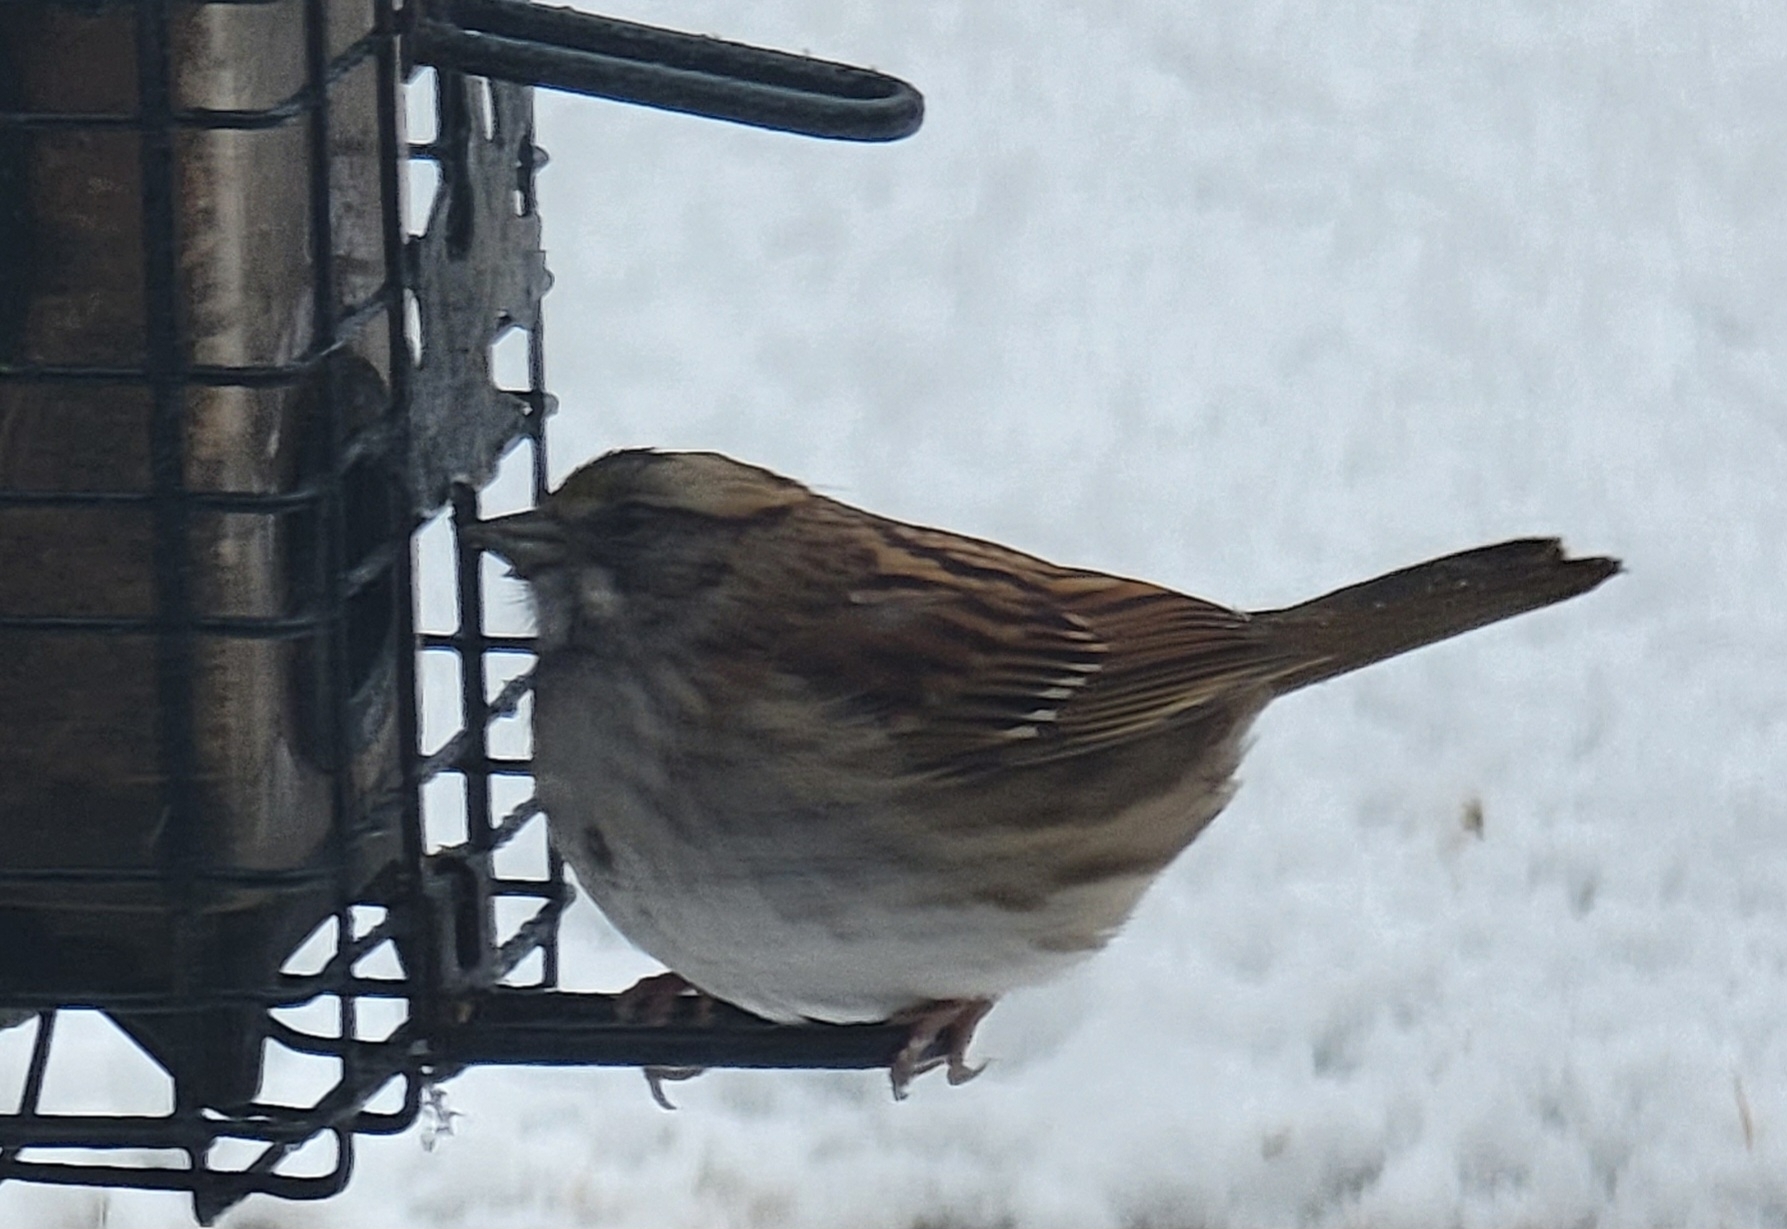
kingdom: Animalia
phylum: Chordata
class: Aves
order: Passeriformes
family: Passerellidae
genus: Zonotrichia
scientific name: Zonotrichia albicollis
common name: White-throated sparrow
